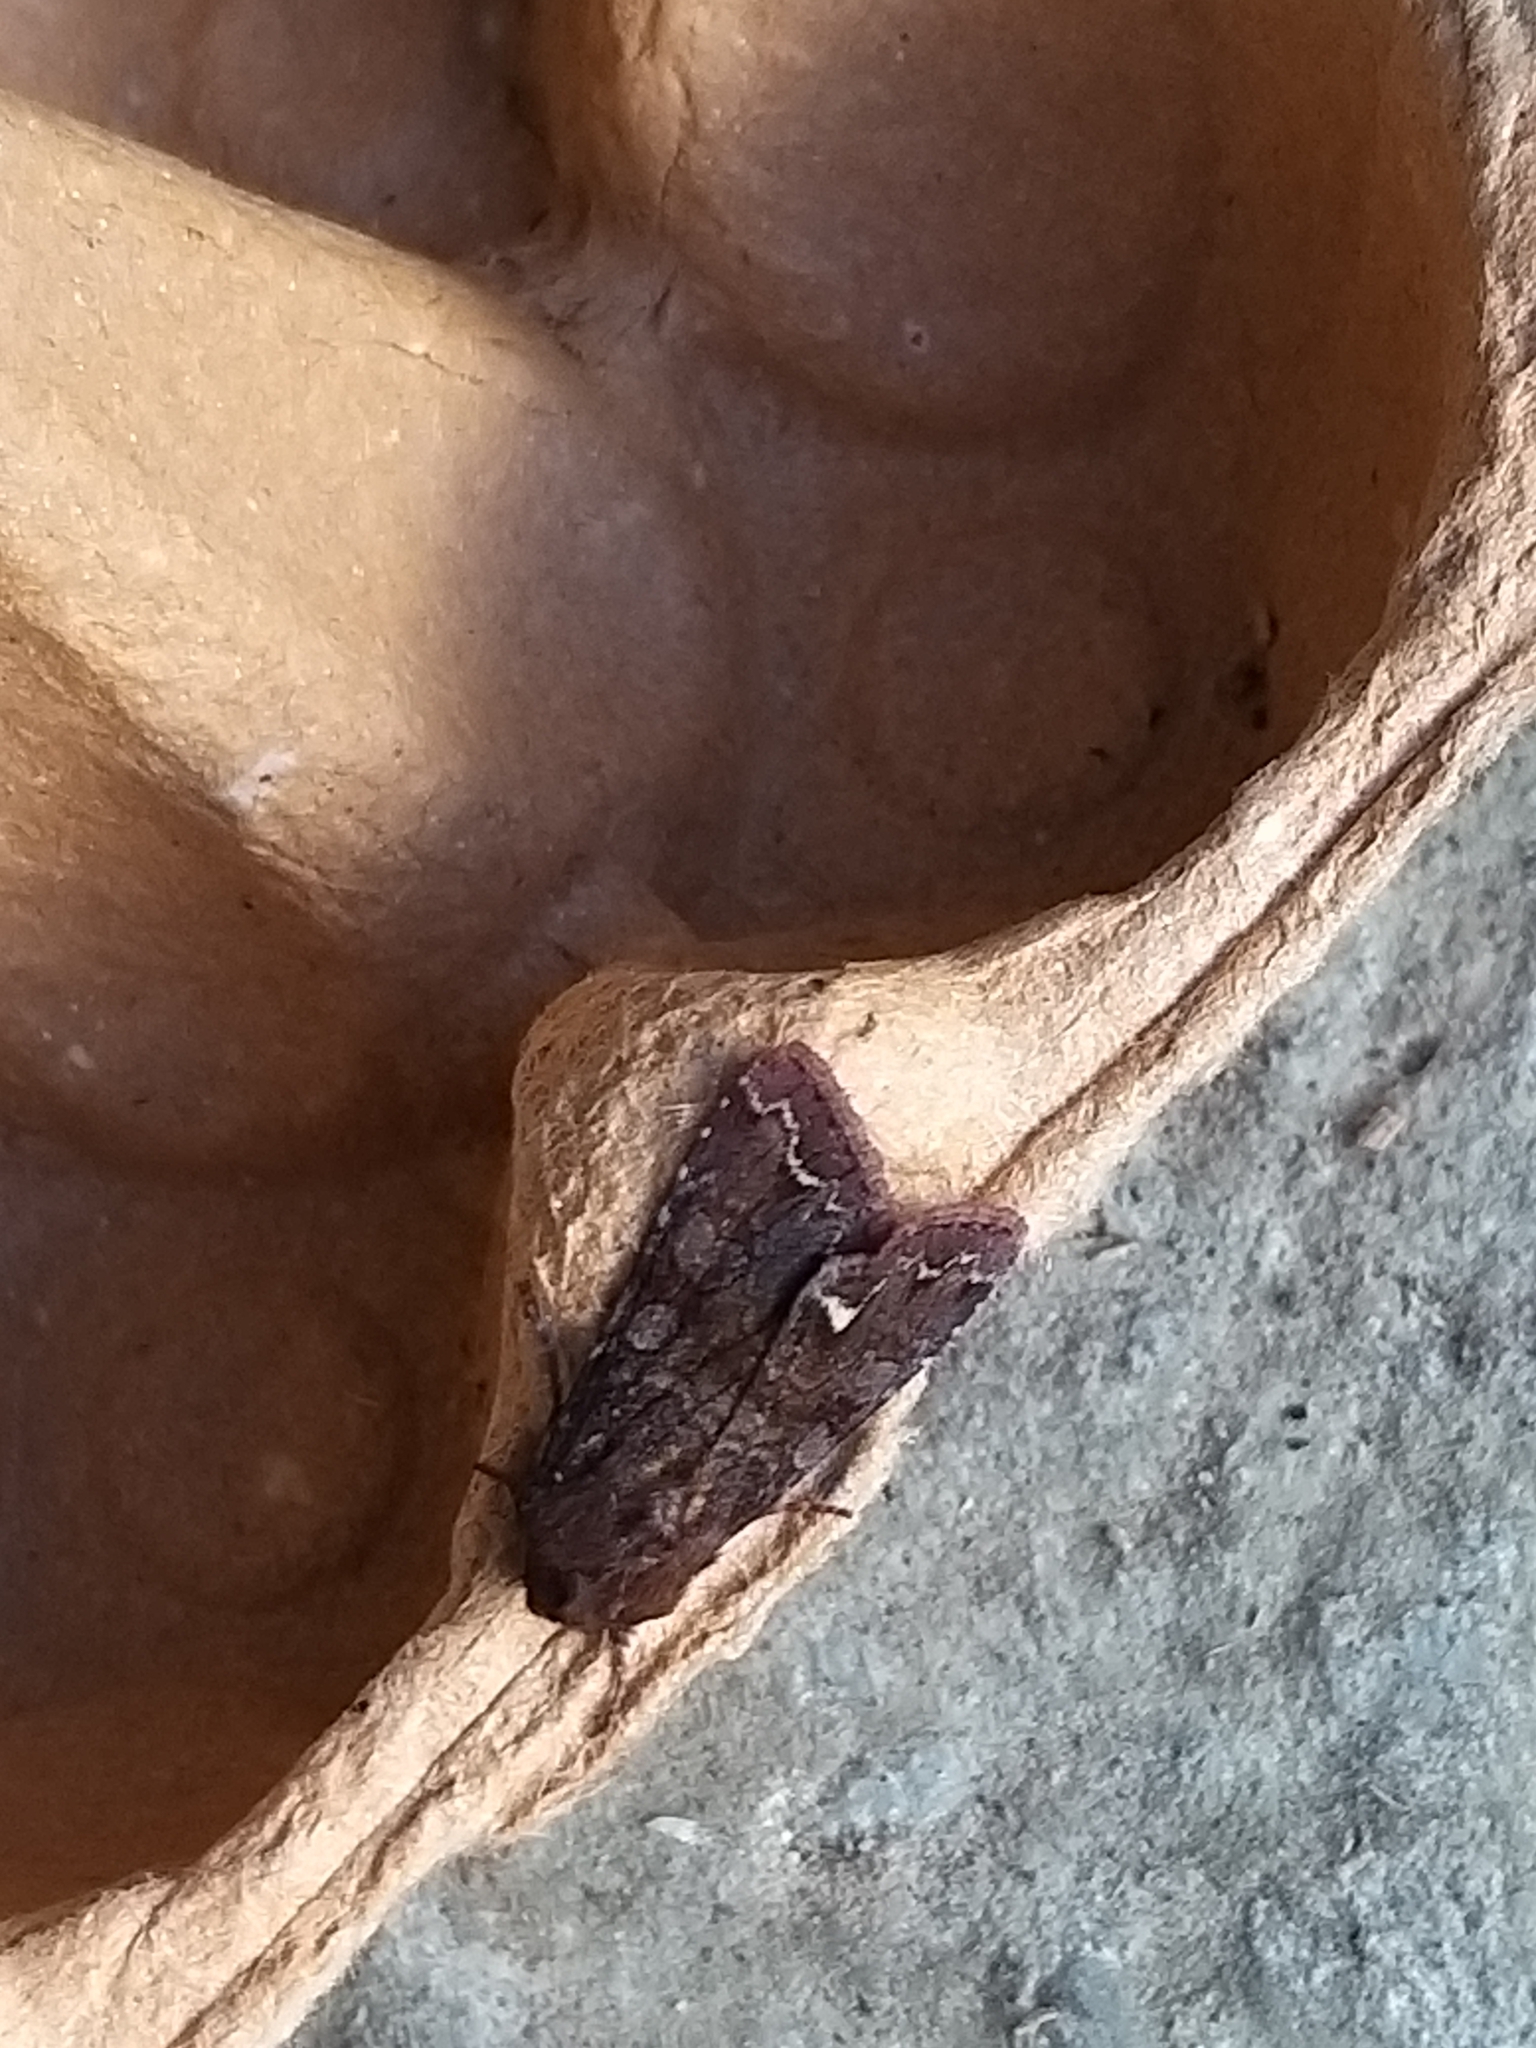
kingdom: Animalia
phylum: Arthropoda
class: Insecta
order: Lepidoptera
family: Noctuidae
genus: Ceramica
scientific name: Ceramica pisi
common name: Broom moth
